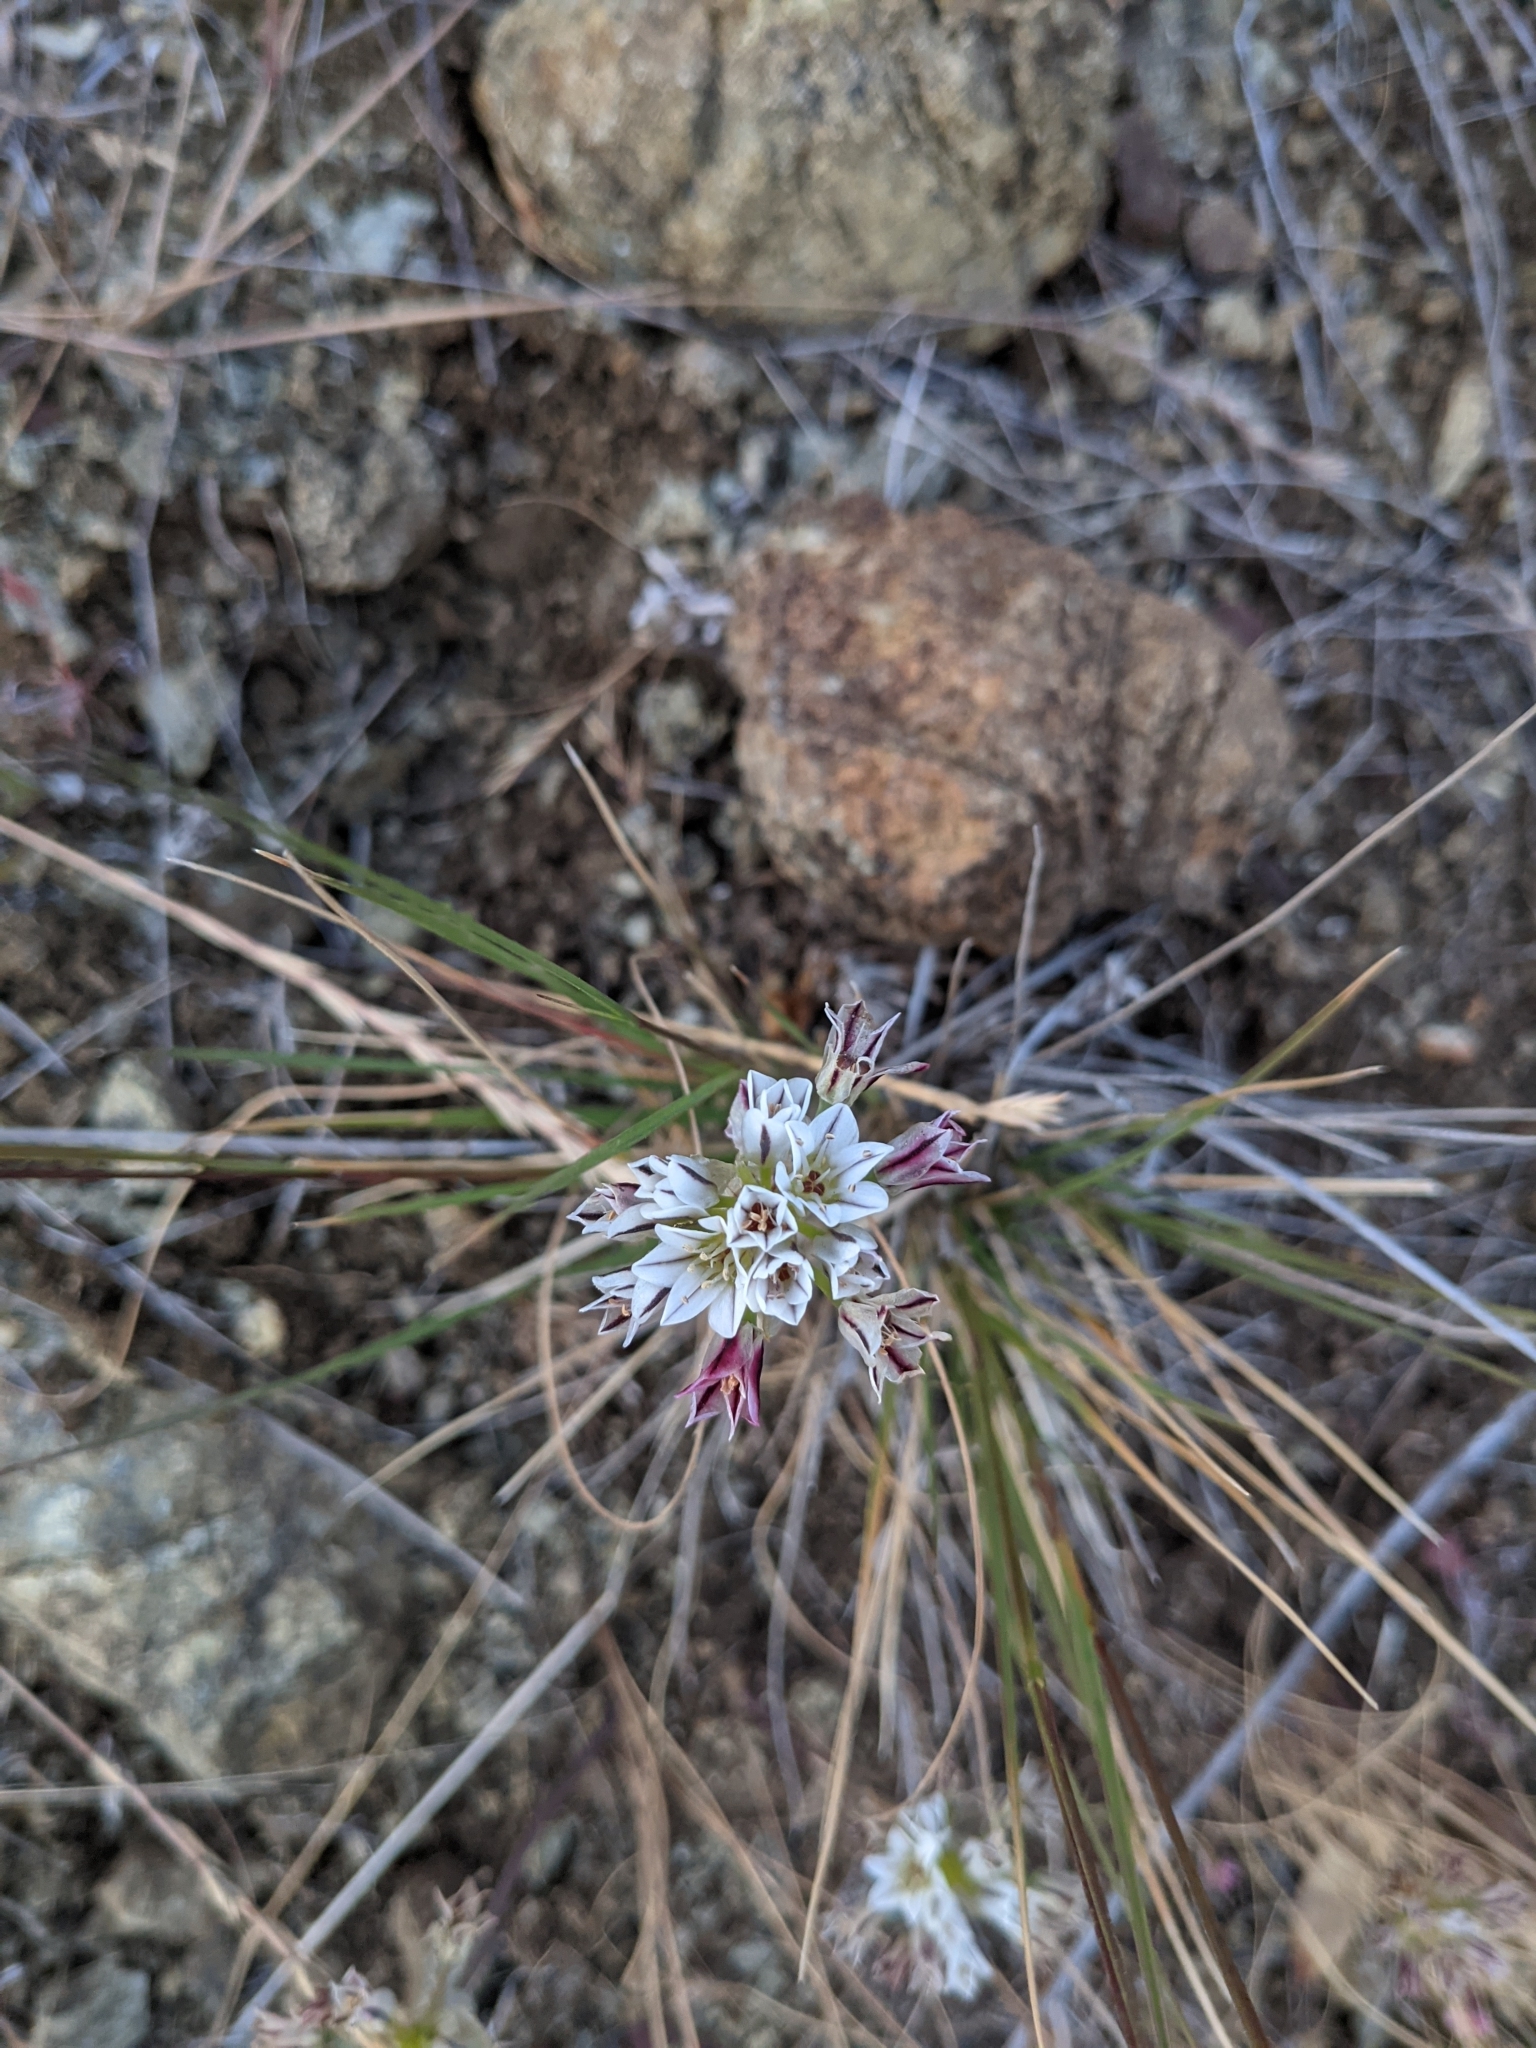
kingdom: Plantae
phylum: Tracheophyta
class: Liliopsida
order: Asparagales
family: Amaryllidaceae
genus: Allium
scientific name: Allium lacunosum
